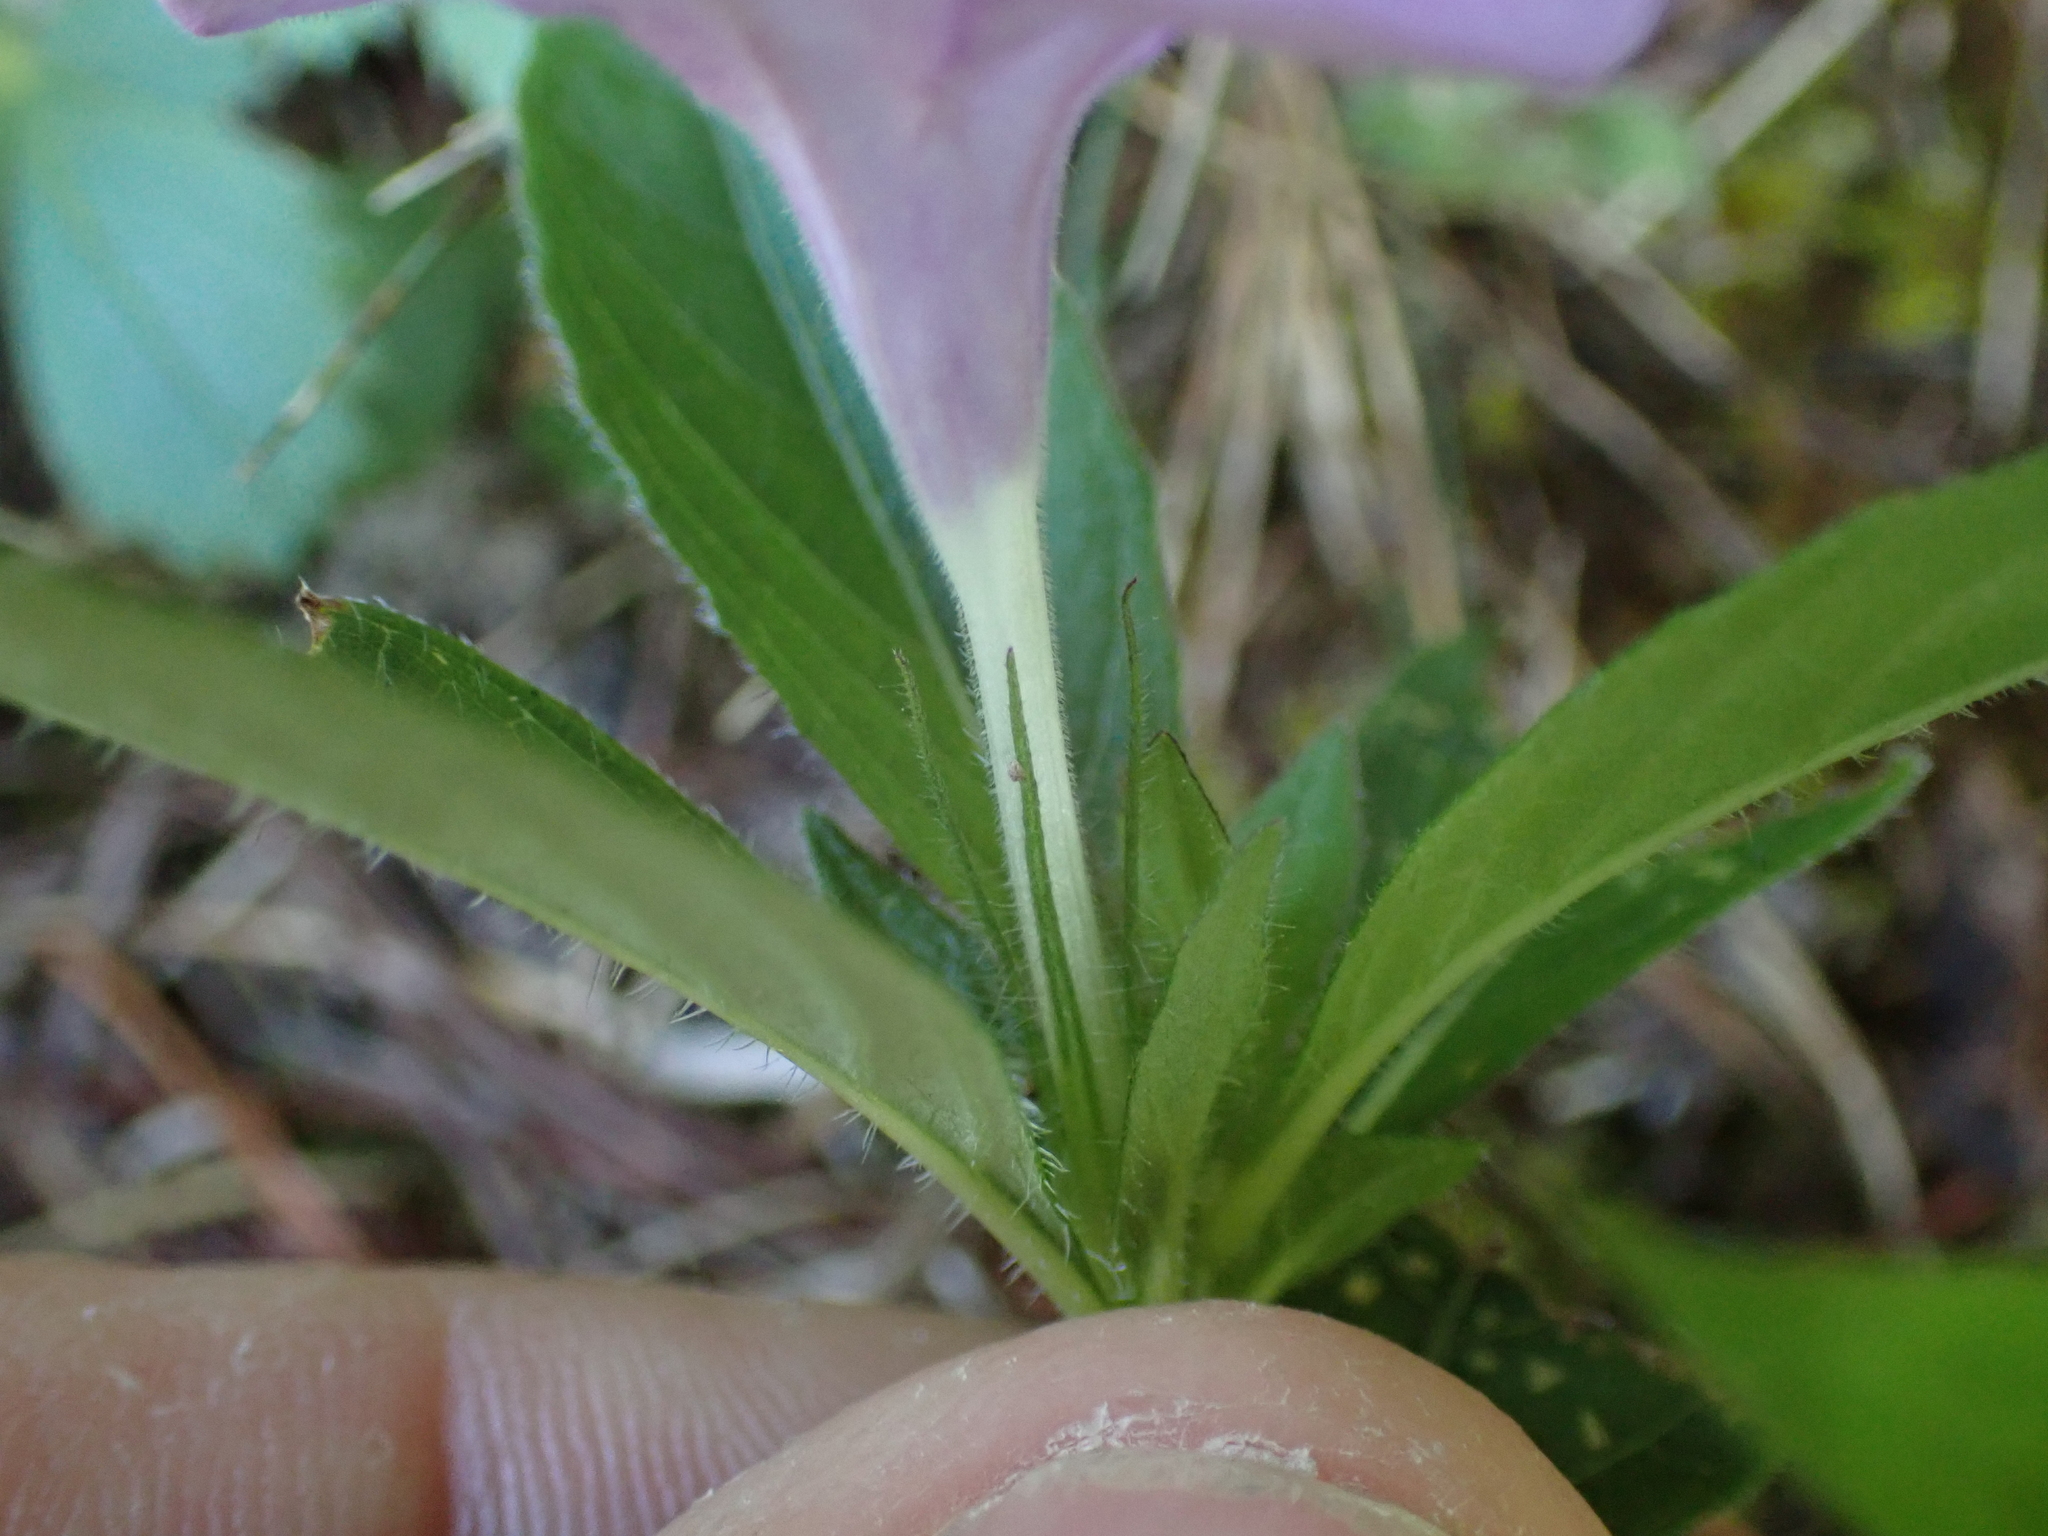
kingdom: Plantae
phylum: Tracheophyta
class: Magnoliopsida
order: Lamiales
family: Acanthaceae
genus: Ruellia
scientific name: Ruellia caroliniensis
